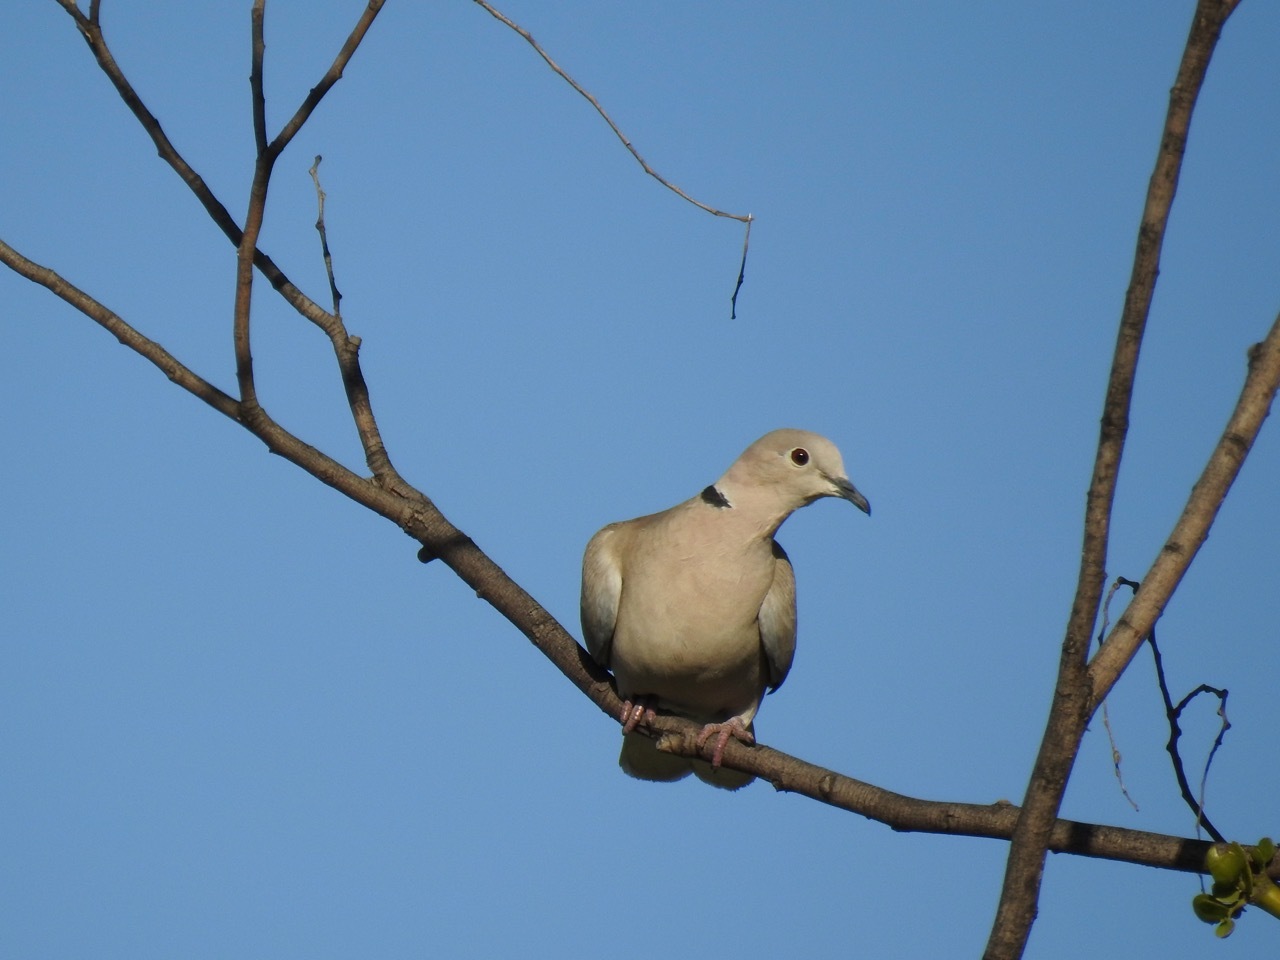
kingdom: Animalia
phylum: Chordata
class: Aves
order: Columbiformes
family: Columbidae
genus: Streptopelia
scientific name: Streptopelia decaocto
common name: Eurasian collared dove
